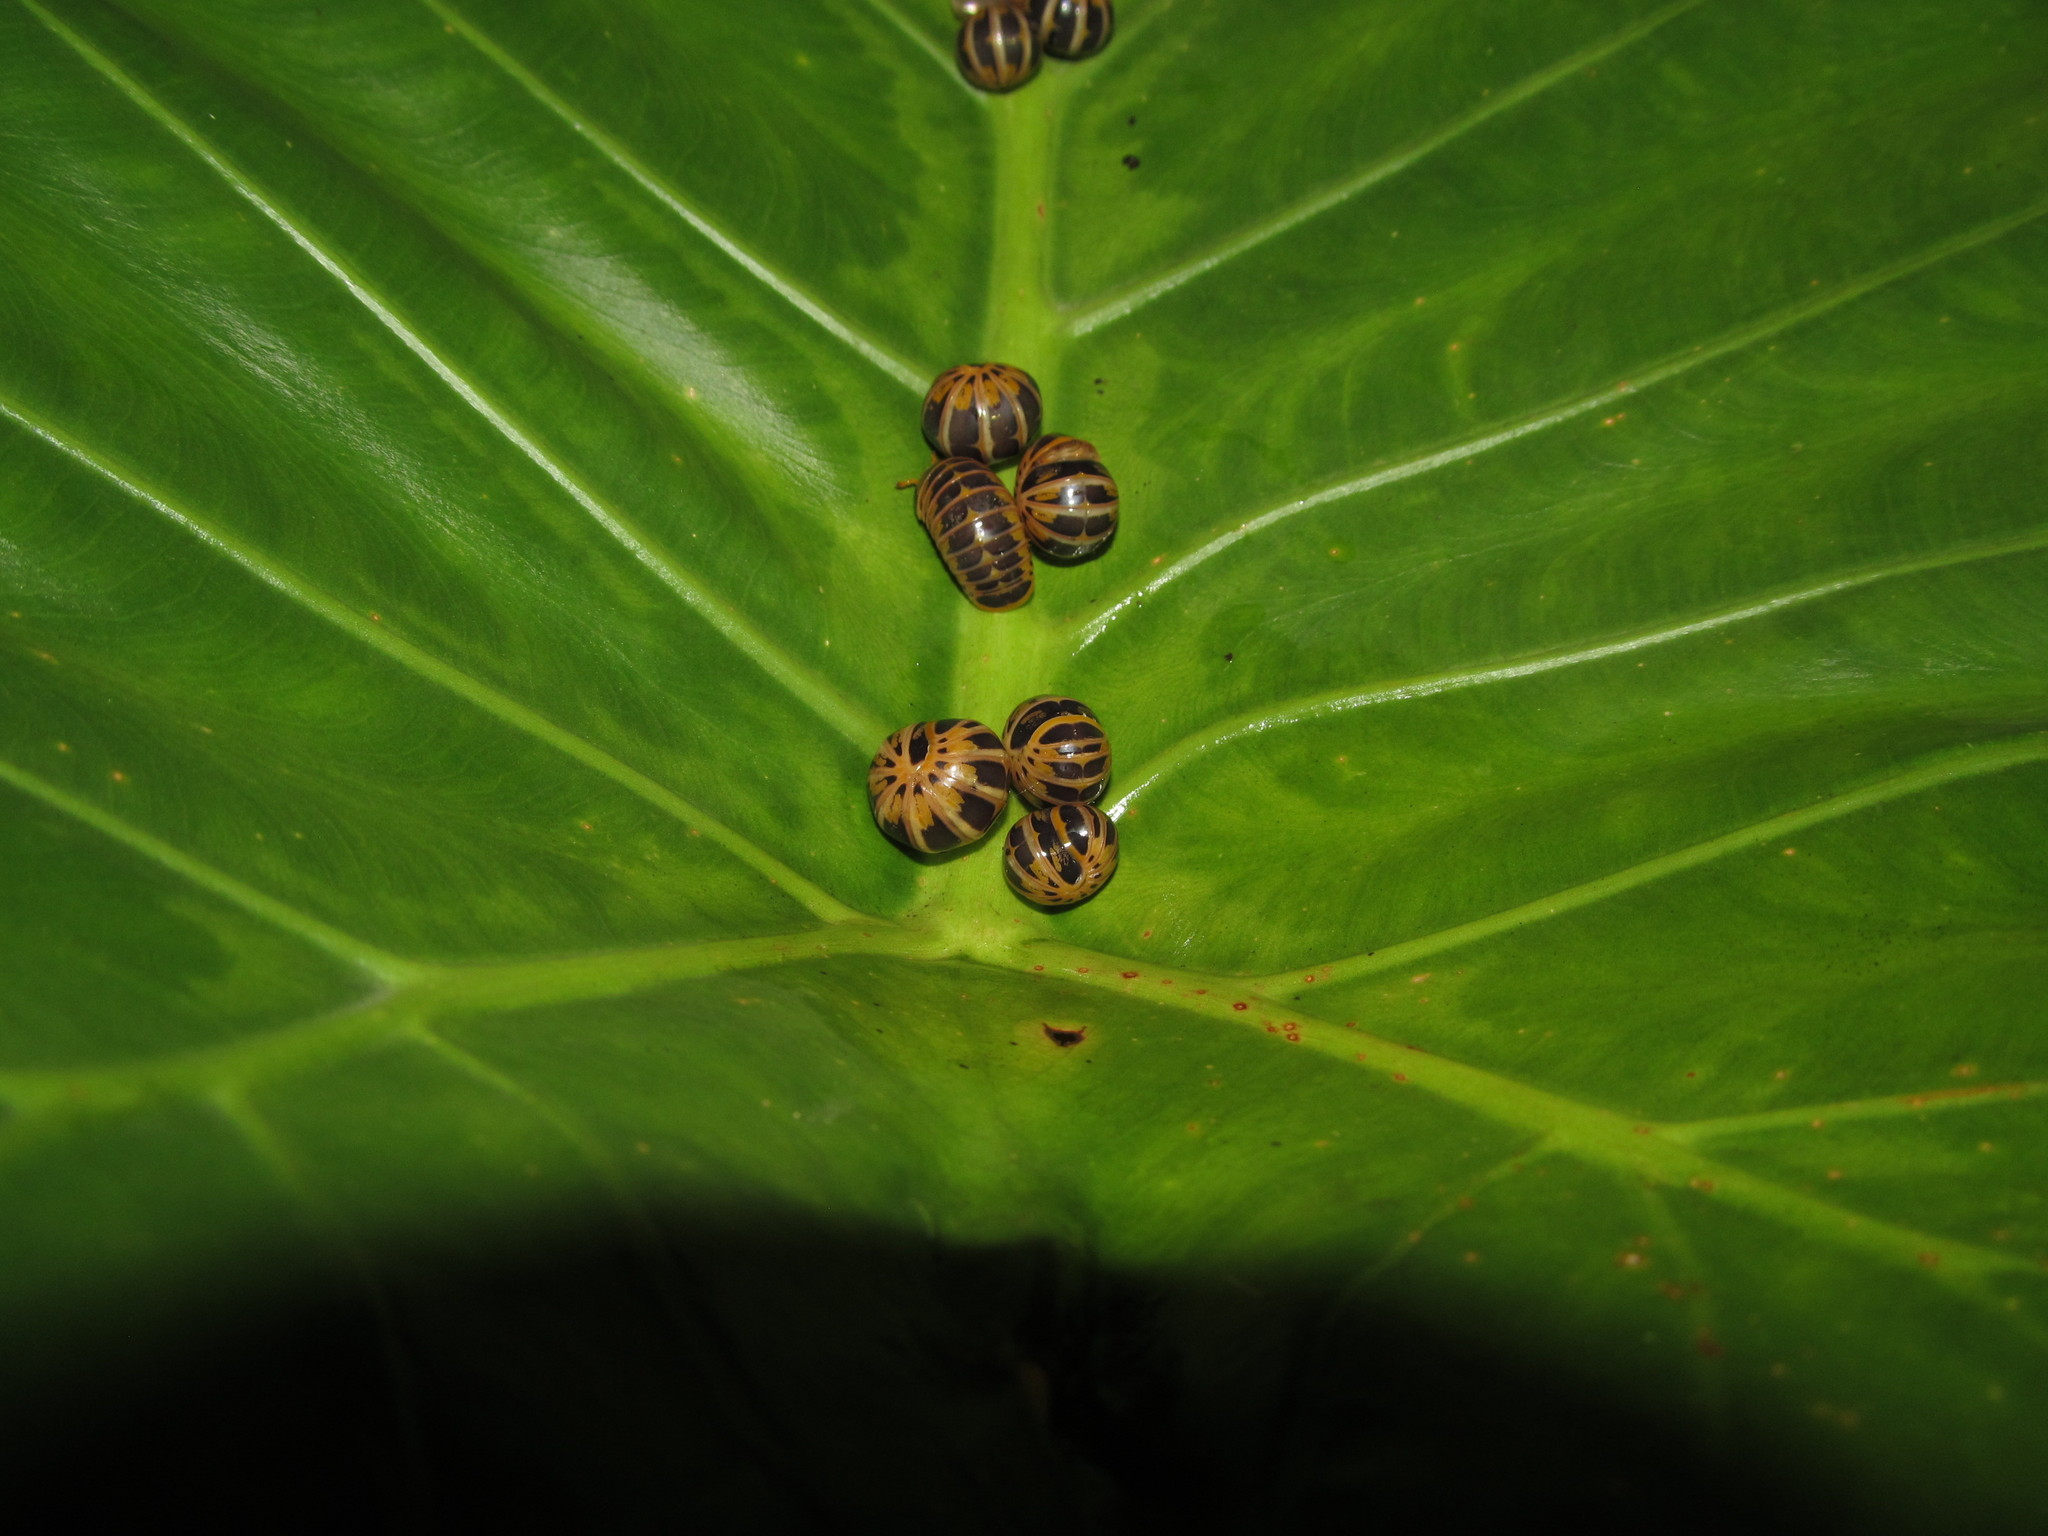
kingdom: Animalia
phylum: Arthropoda
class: Diplopoda
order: Glomerida
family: Glomeridae
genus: Rhopalomeris
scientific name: Rhopalomeris sauda
